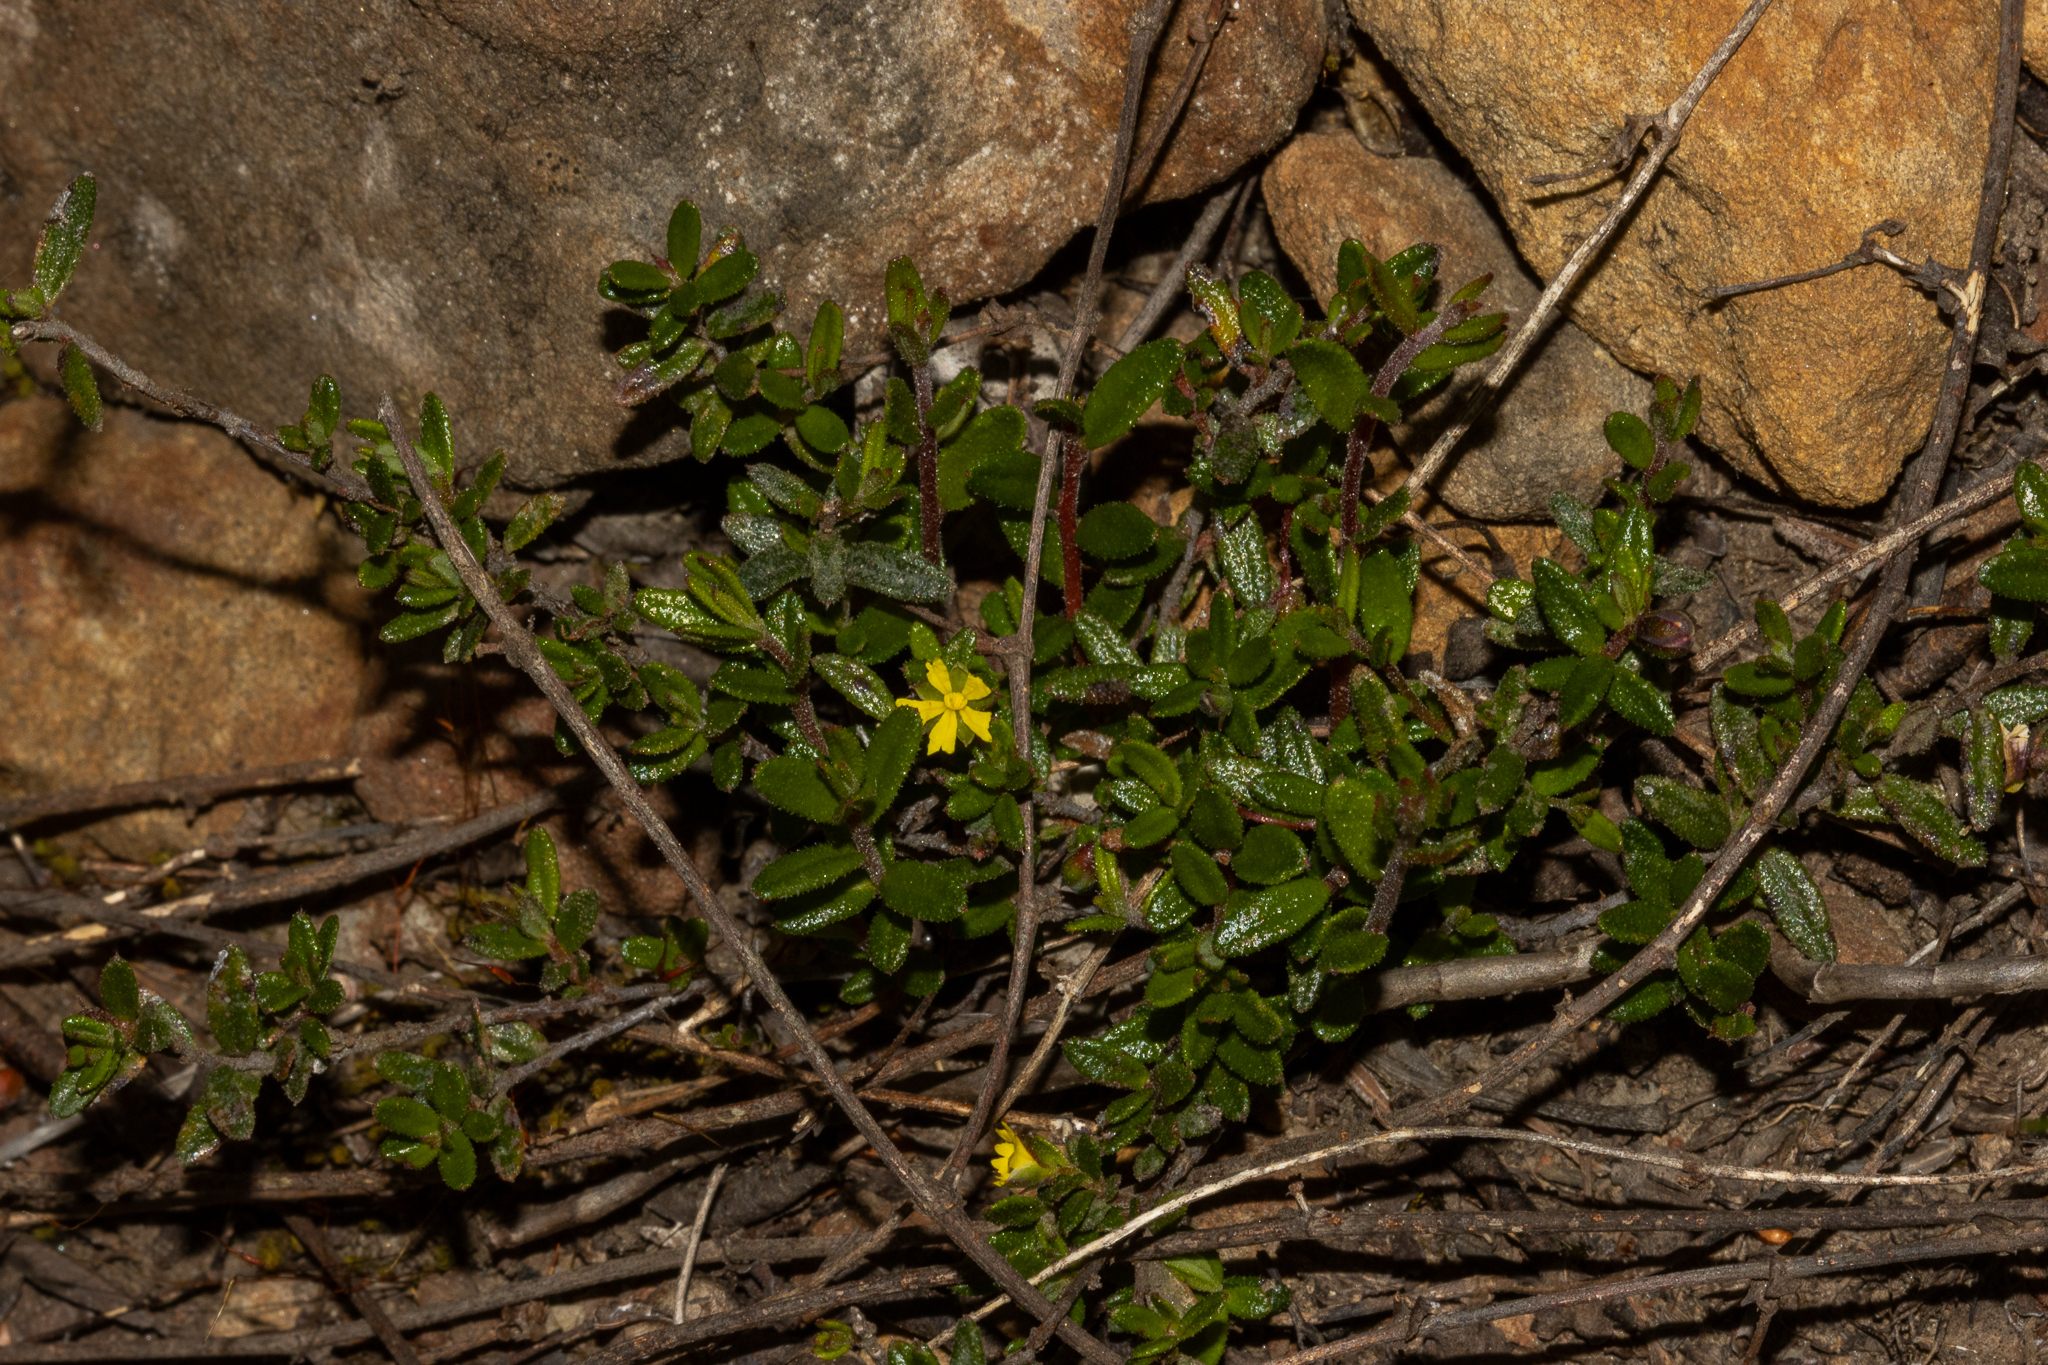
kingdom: Plantae
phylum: Tracheophyta
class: Magnoliopsida
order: Dilleniales
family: Dilleniaceae
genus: Hibbertia
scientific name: Hibbertia
